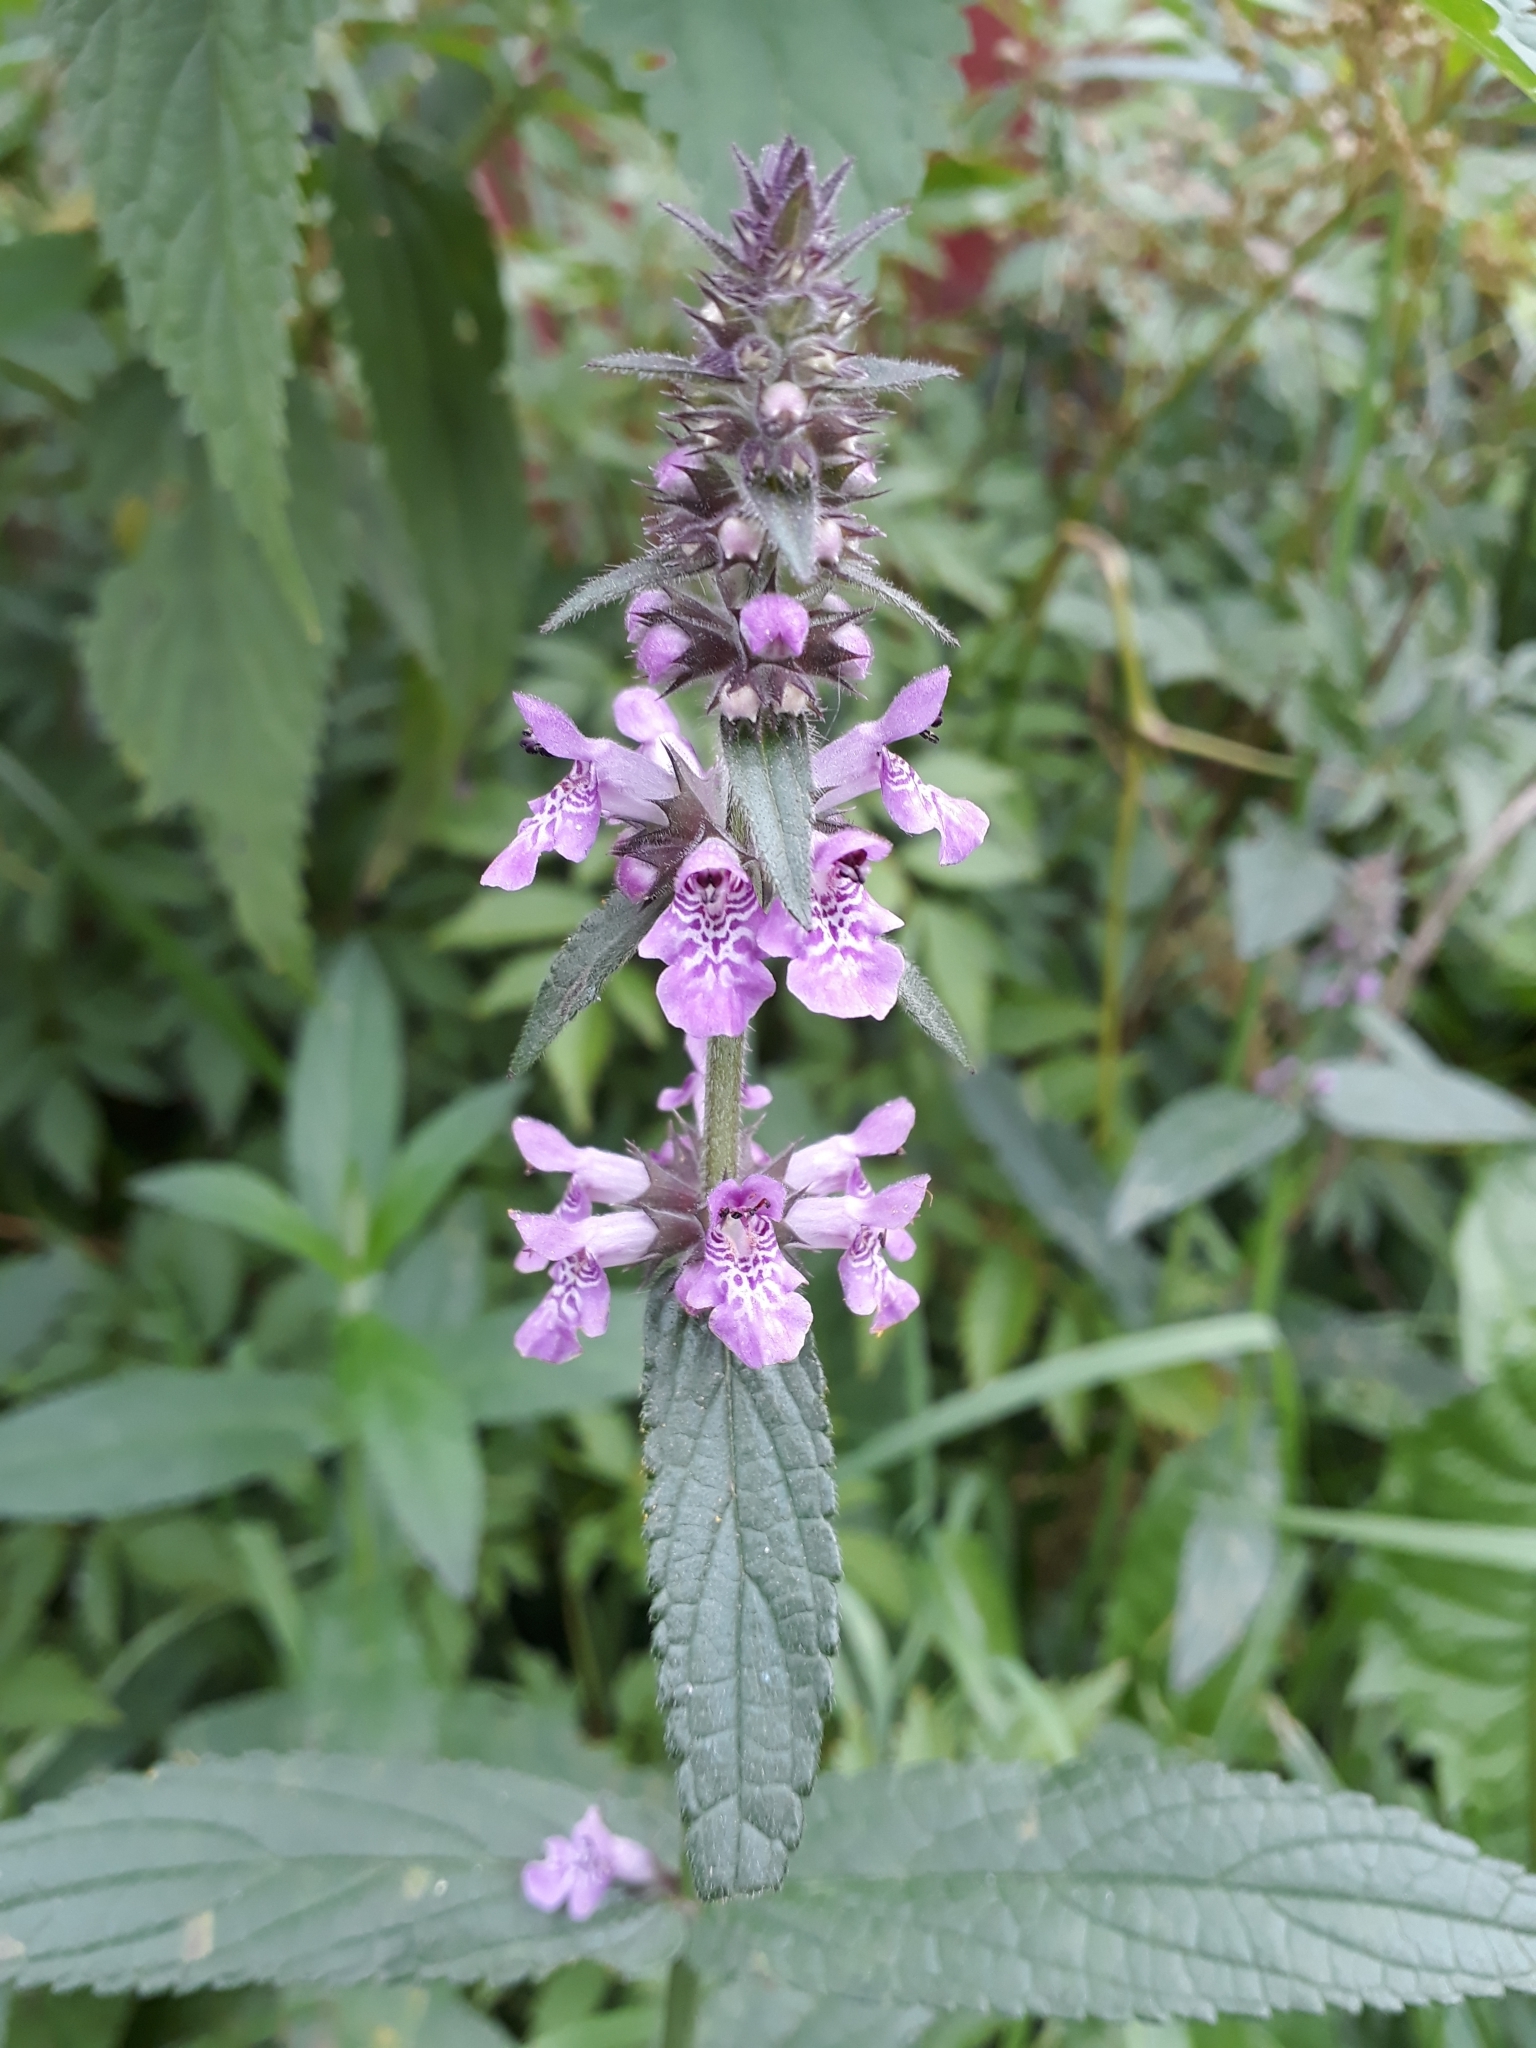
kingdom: Plantae
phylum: Tracheophyta
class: Magnoliopsida
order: Lamiales
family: Lamiaceae
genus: Stachys
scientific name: Stachys palustris
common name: Marsh woundwort
